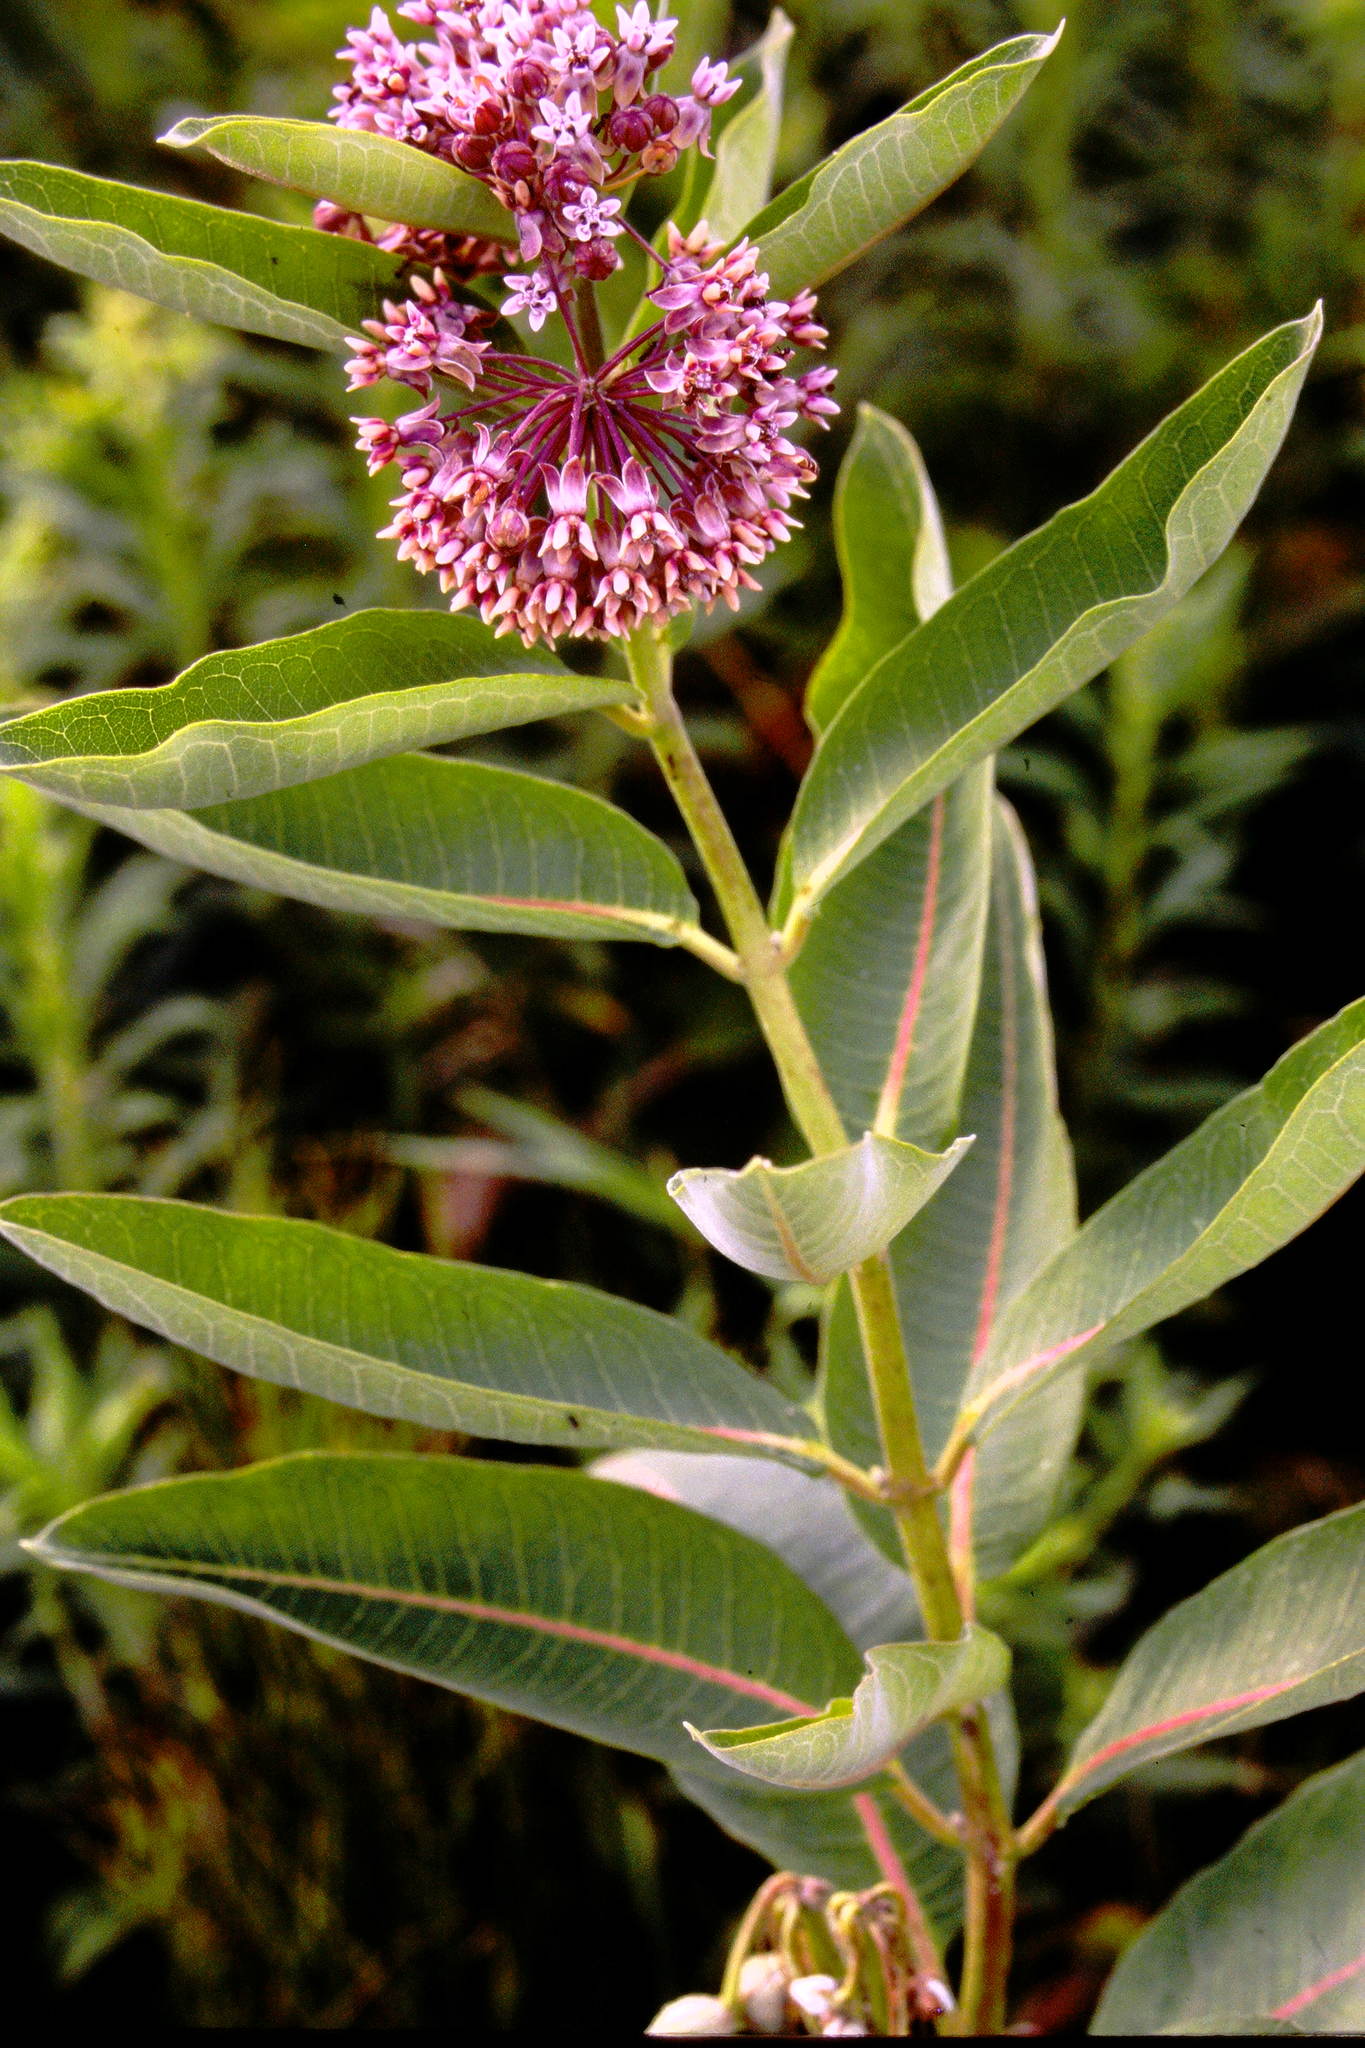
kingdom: Plantae
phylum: Tracheophyta
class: Magnoliopsida
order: Gentianales
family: Apocynaceae
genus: Asclepias
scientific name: Asclepias syriaca
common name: Common milkweed
